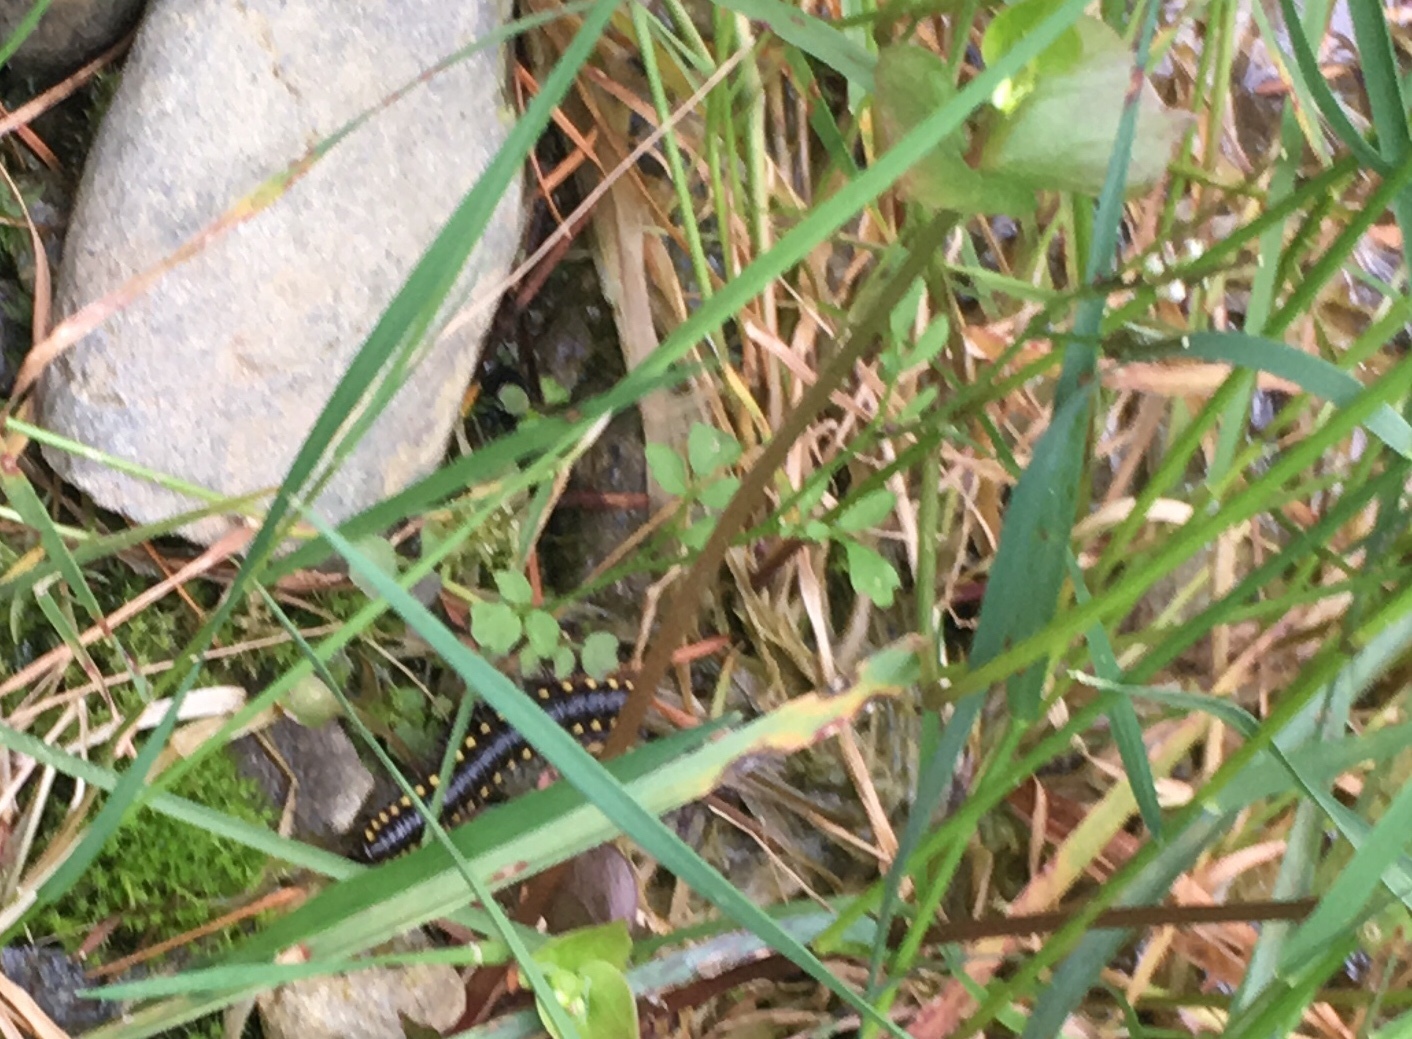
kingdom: Animalia
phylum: Arthropoda
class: Diplopoda
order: Polydesmida
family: Xystodesmidae
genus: Harpaphe
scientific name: Harpaphe haydeniana
